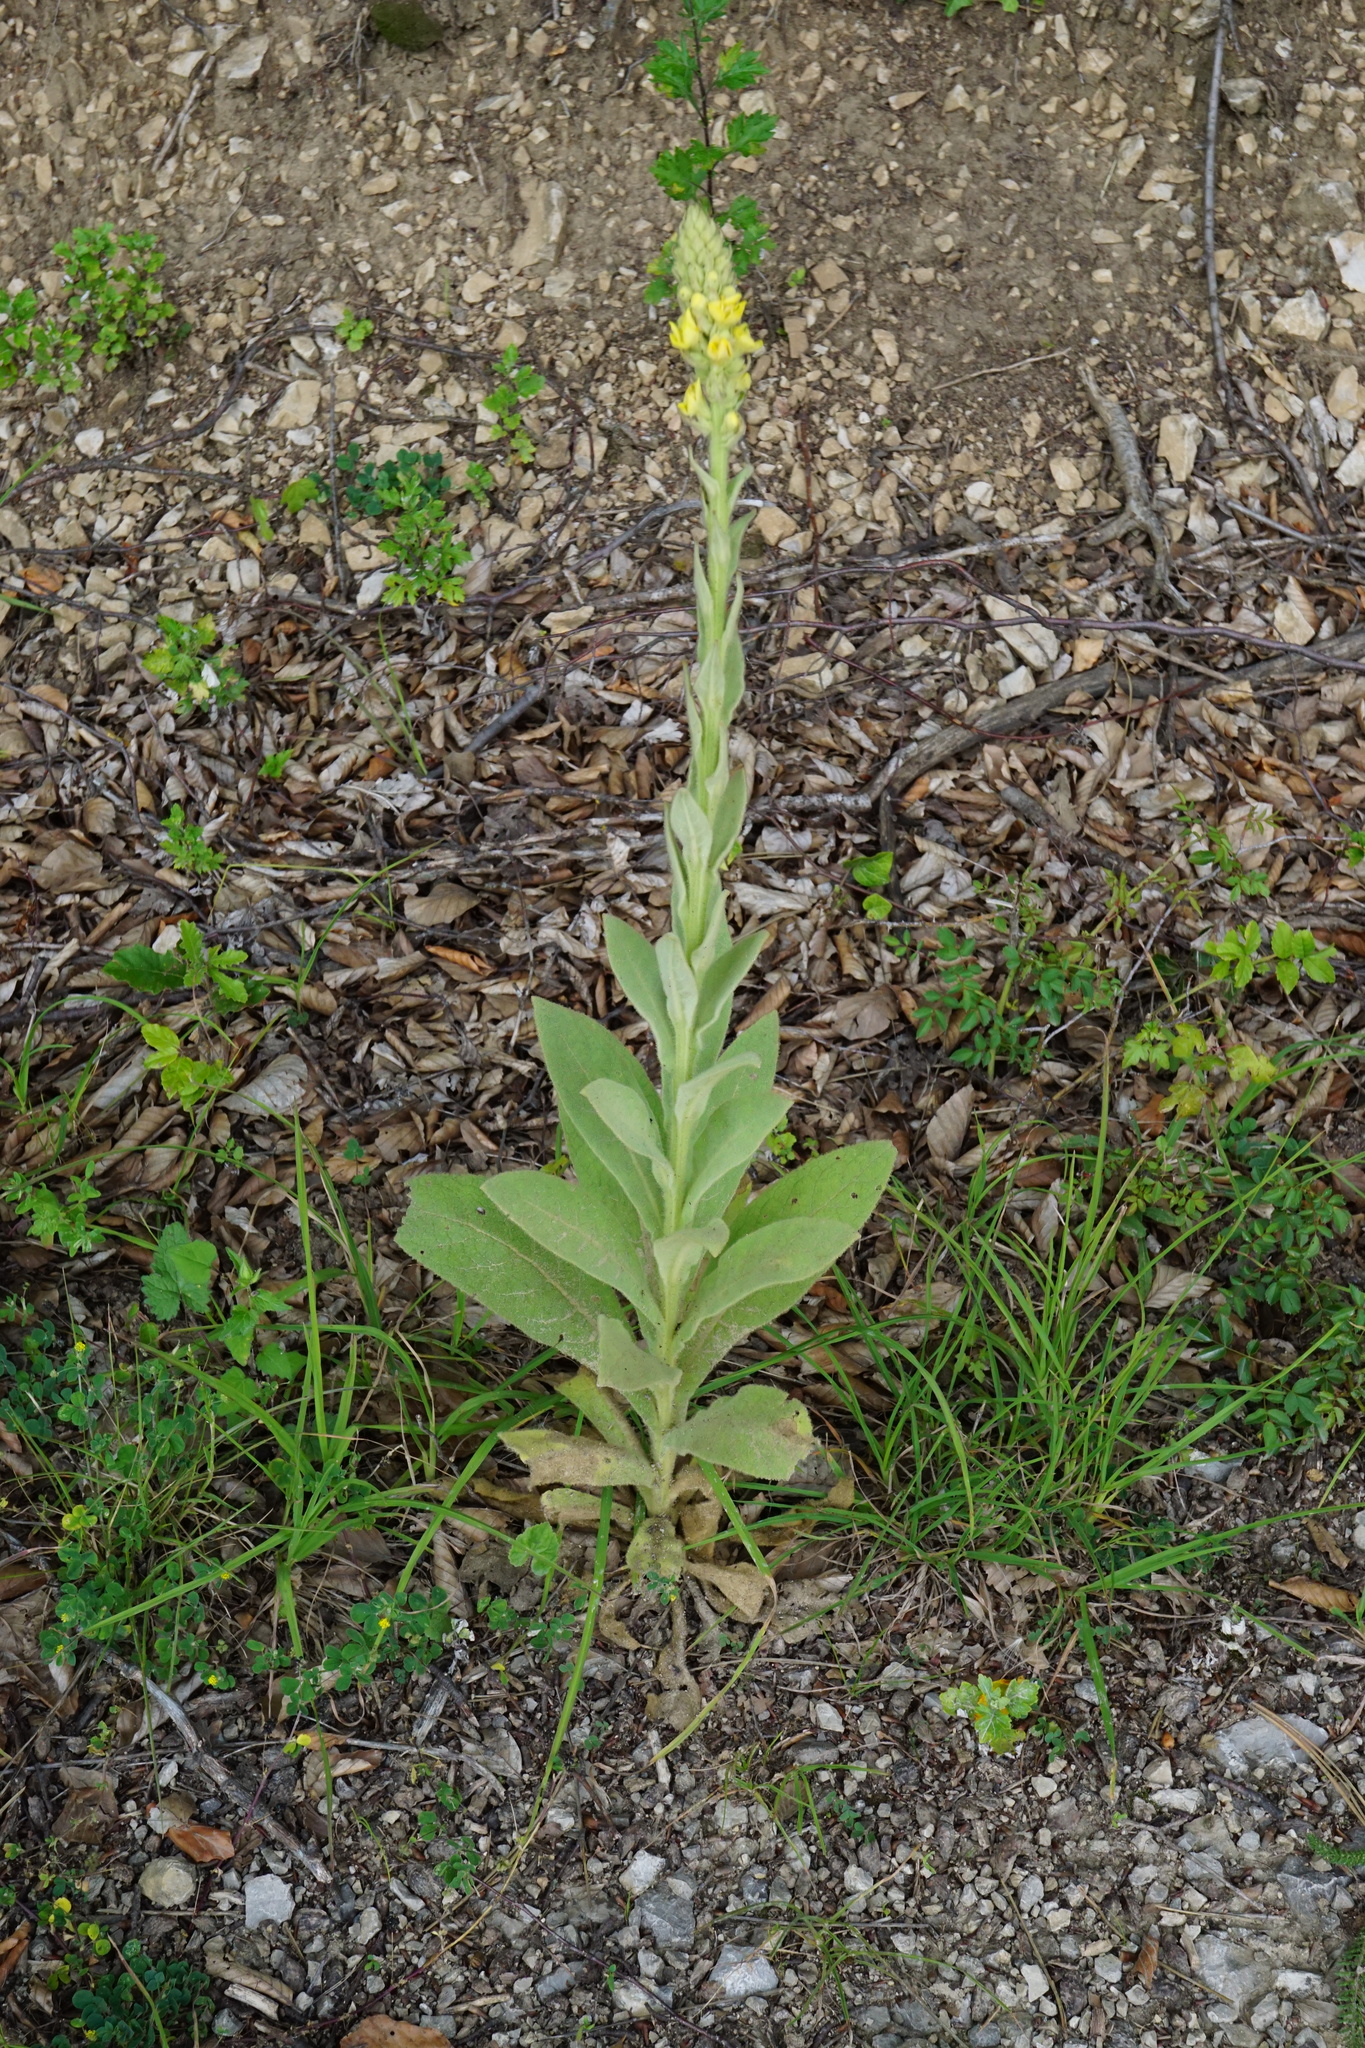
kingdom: Plantae
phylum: Tracheophyta
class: Magnoliopsida
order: Lamiales
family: Scrophulariaceae
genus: Verbascum
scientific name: Verbascum thapsus
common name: Common mullein
